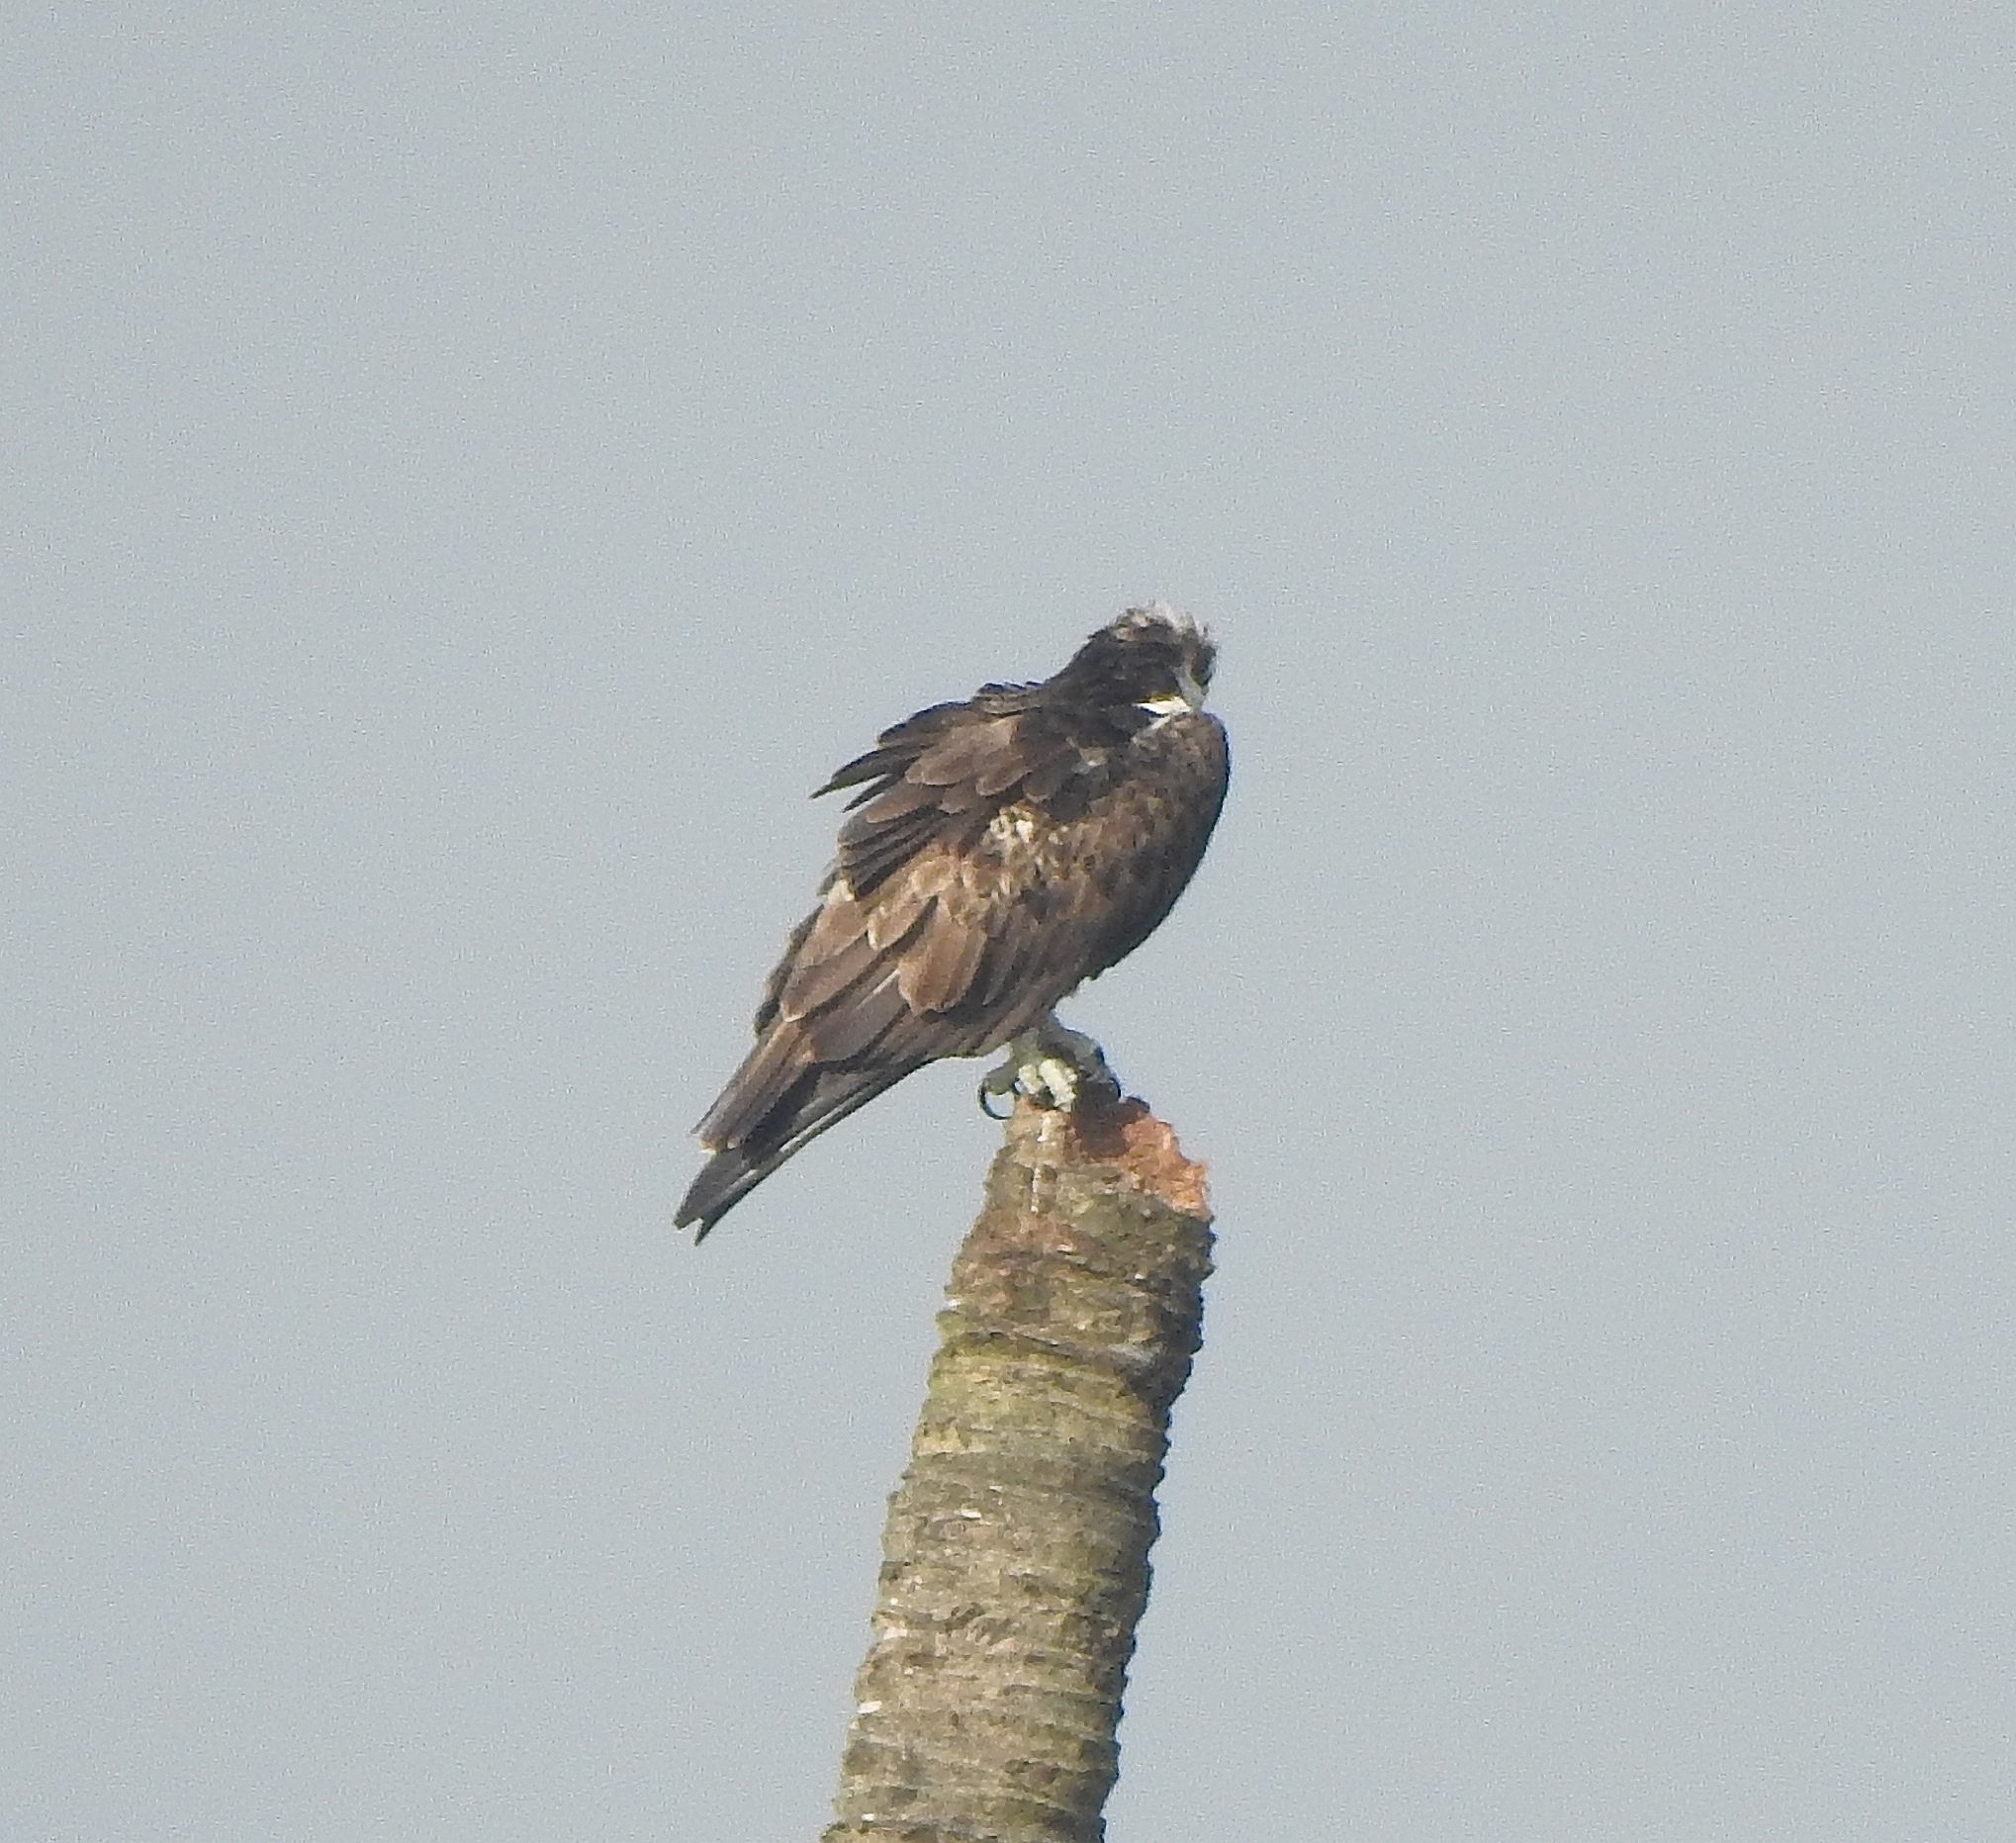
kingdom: Animalia
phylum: Chordata
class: Aves
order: Accipitriformes
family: Pandionidae
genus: Pandion
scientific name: Pandion haliaetus
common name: Osprey
